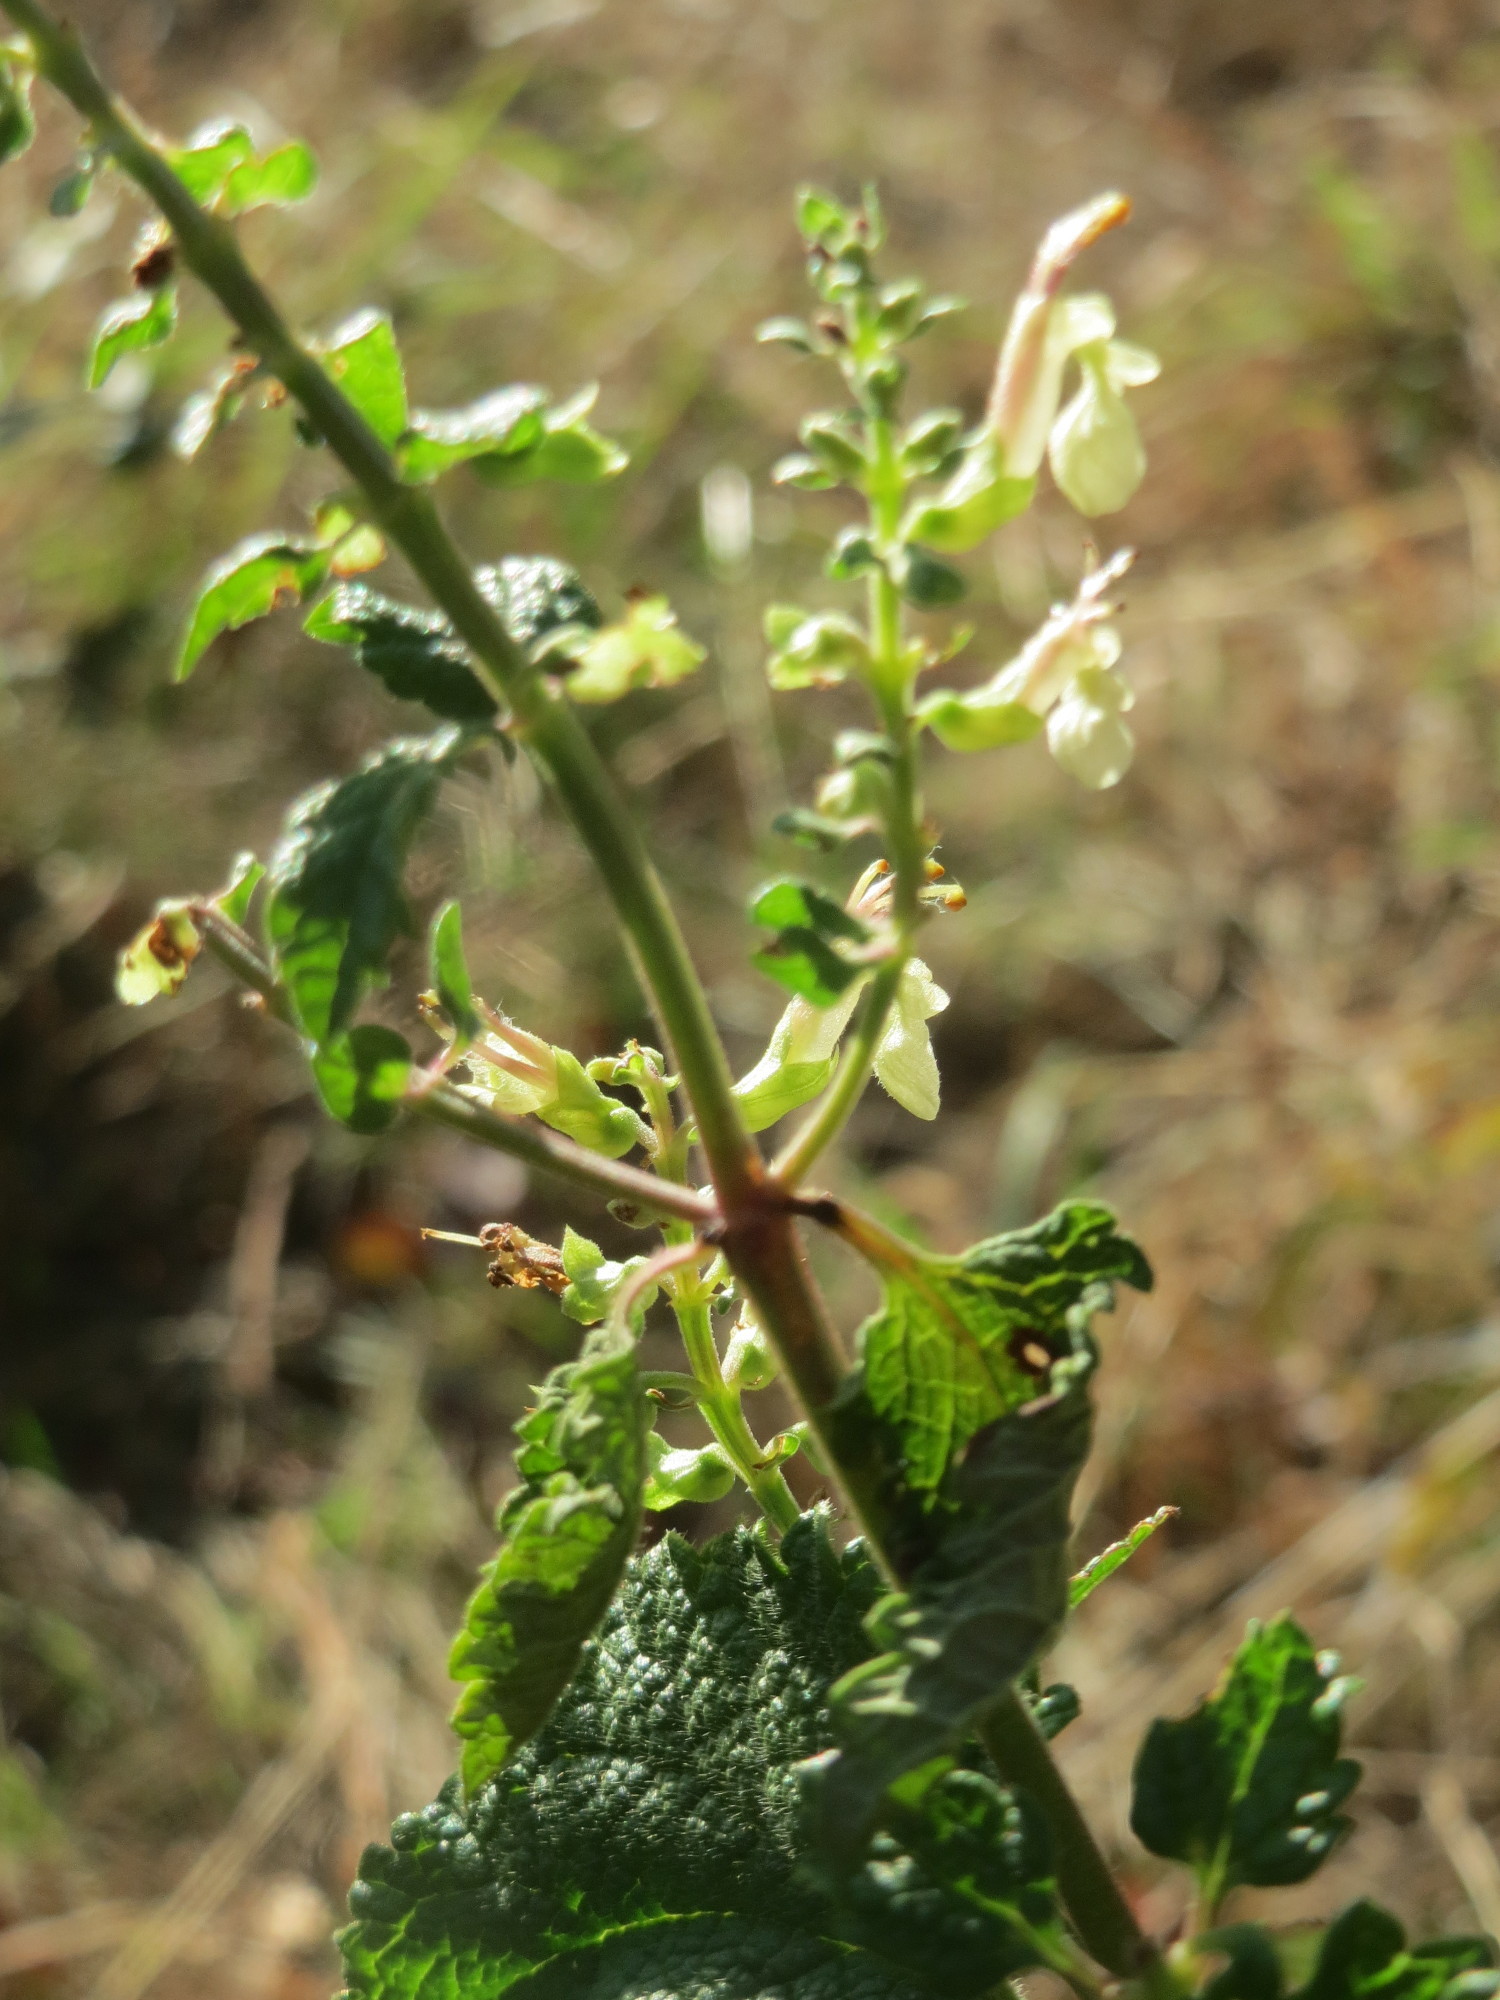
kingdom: Plantae
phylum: Tracheophyta
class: Magnoliopsida
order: Lamiales
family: Lamiaceae
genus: Teucrium
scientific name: Teucrium scorodonia
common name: Woodland germander
